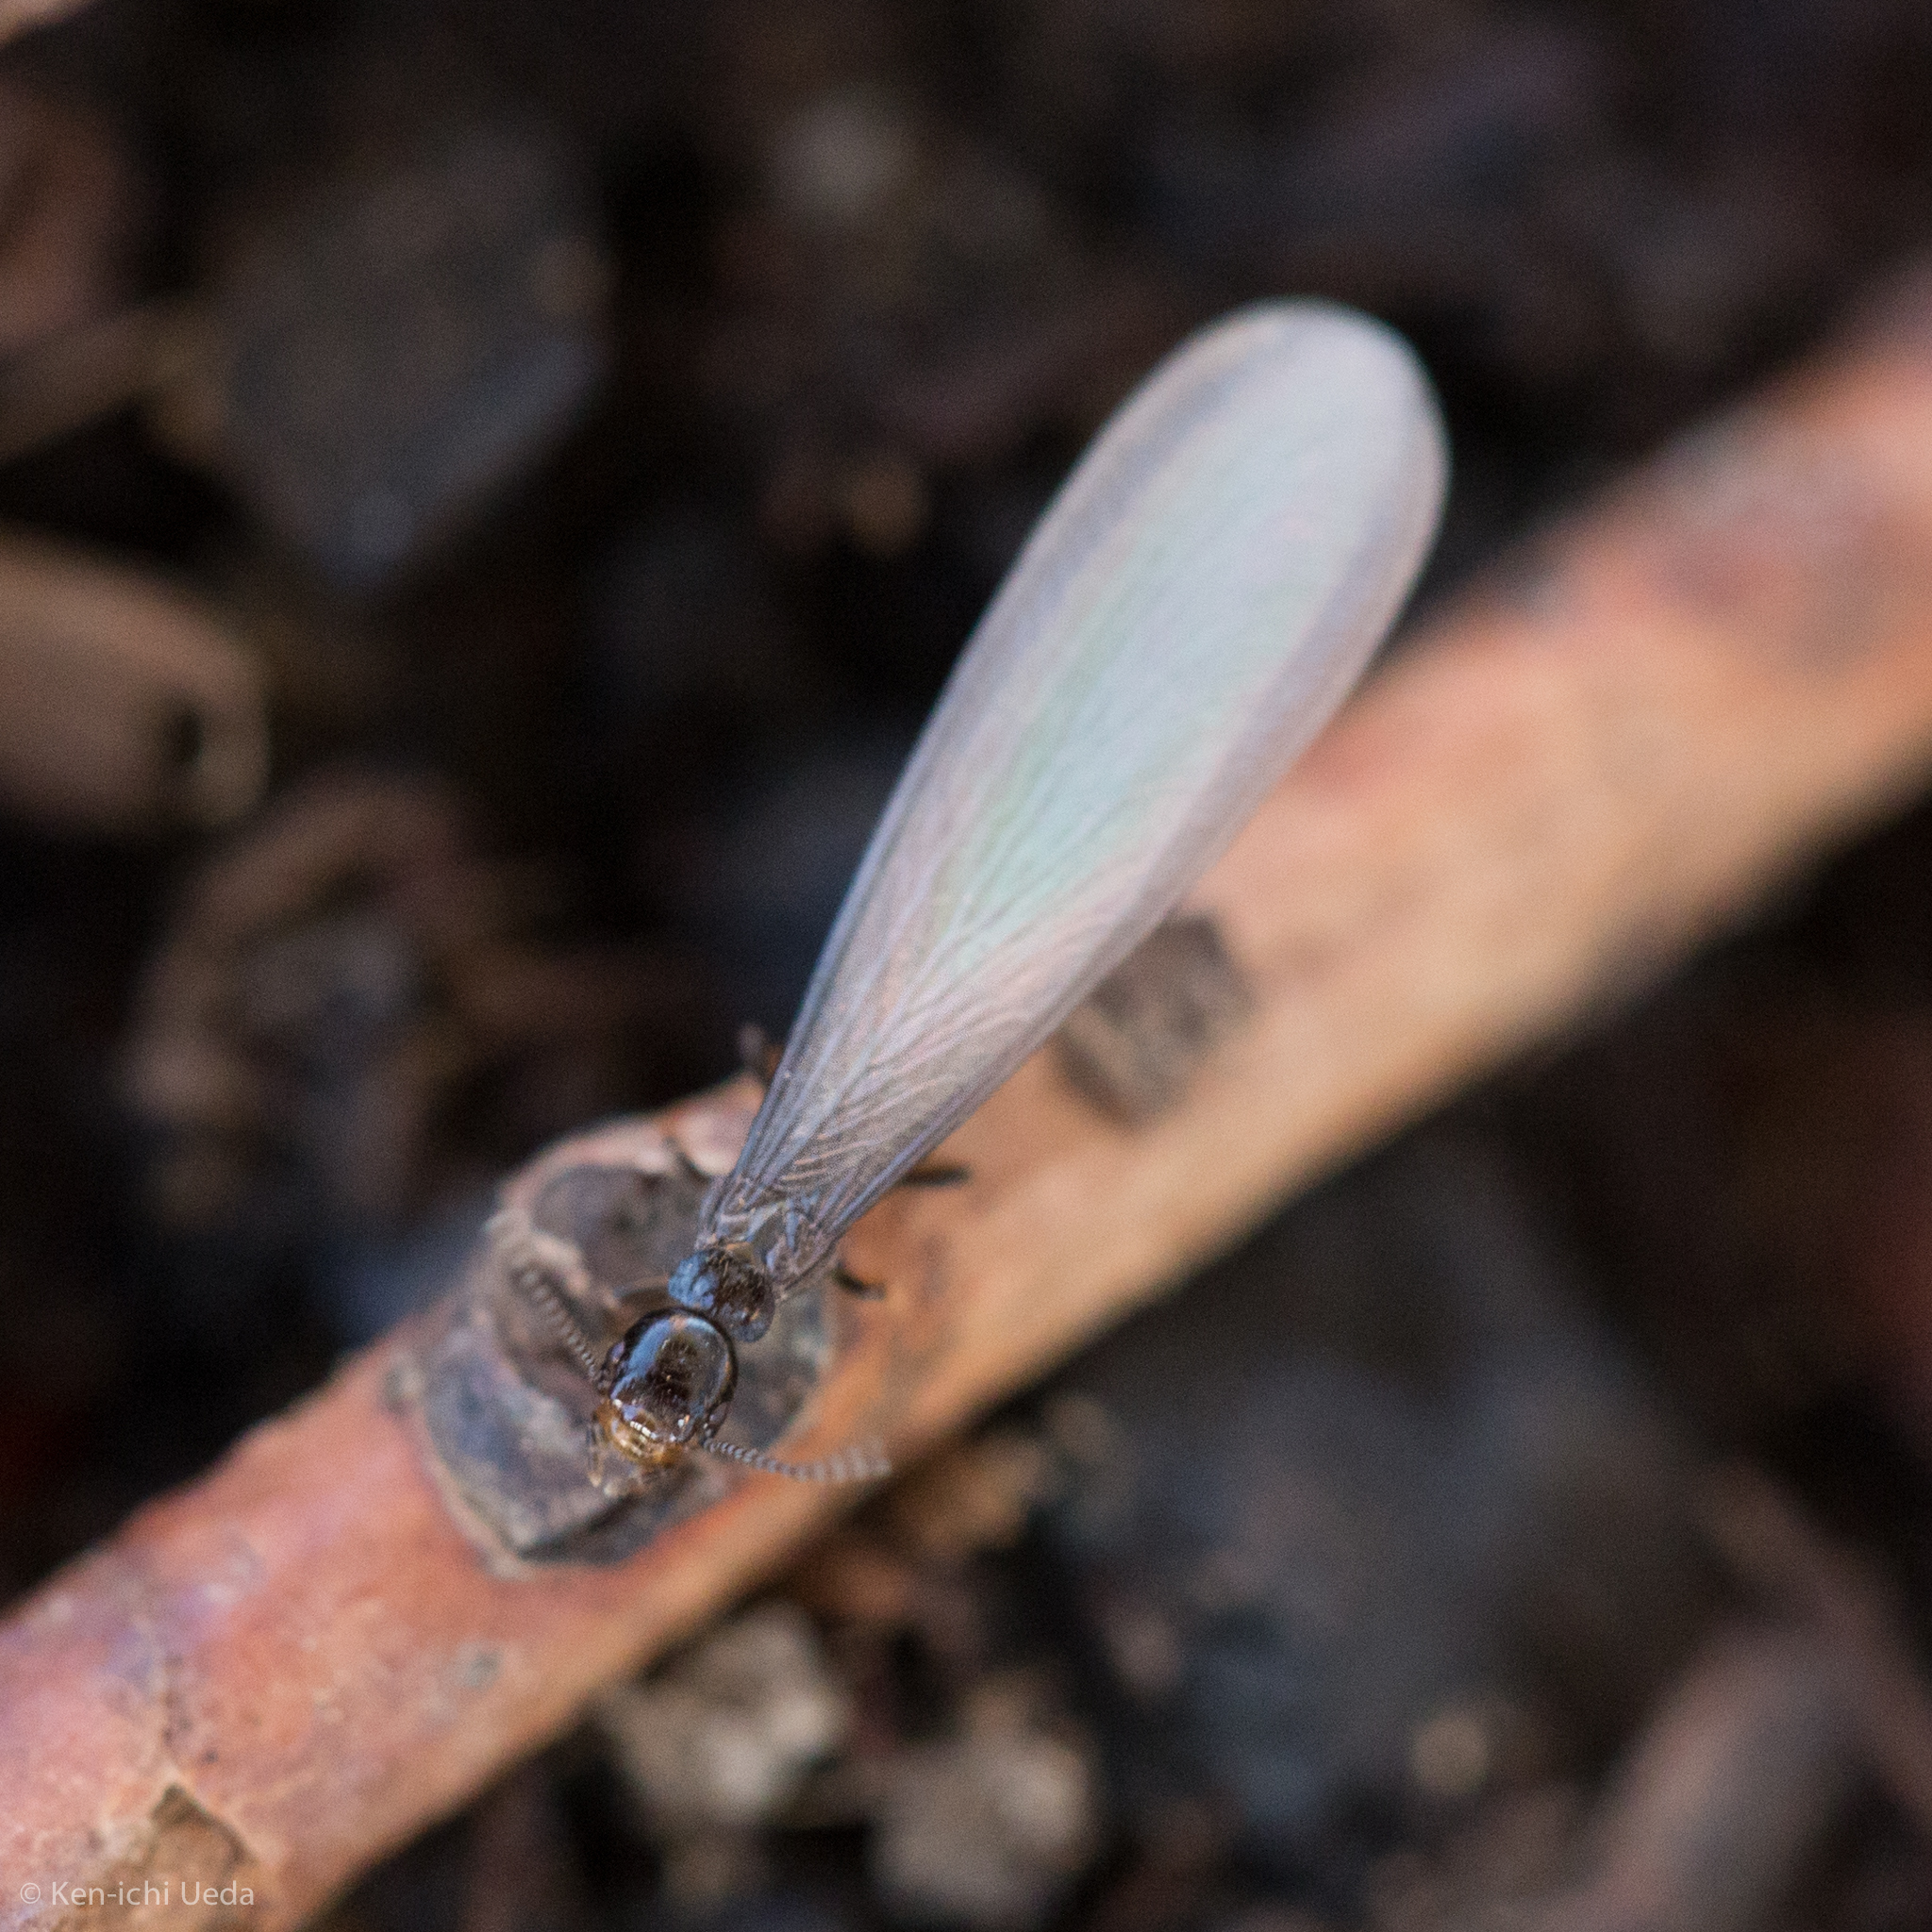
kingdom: Animalia
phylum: Arthropoda
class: Insecta
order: Blattodea
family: Rhinotermitidae
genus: Reticulitermes
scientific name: Reticulitermes hesperus
